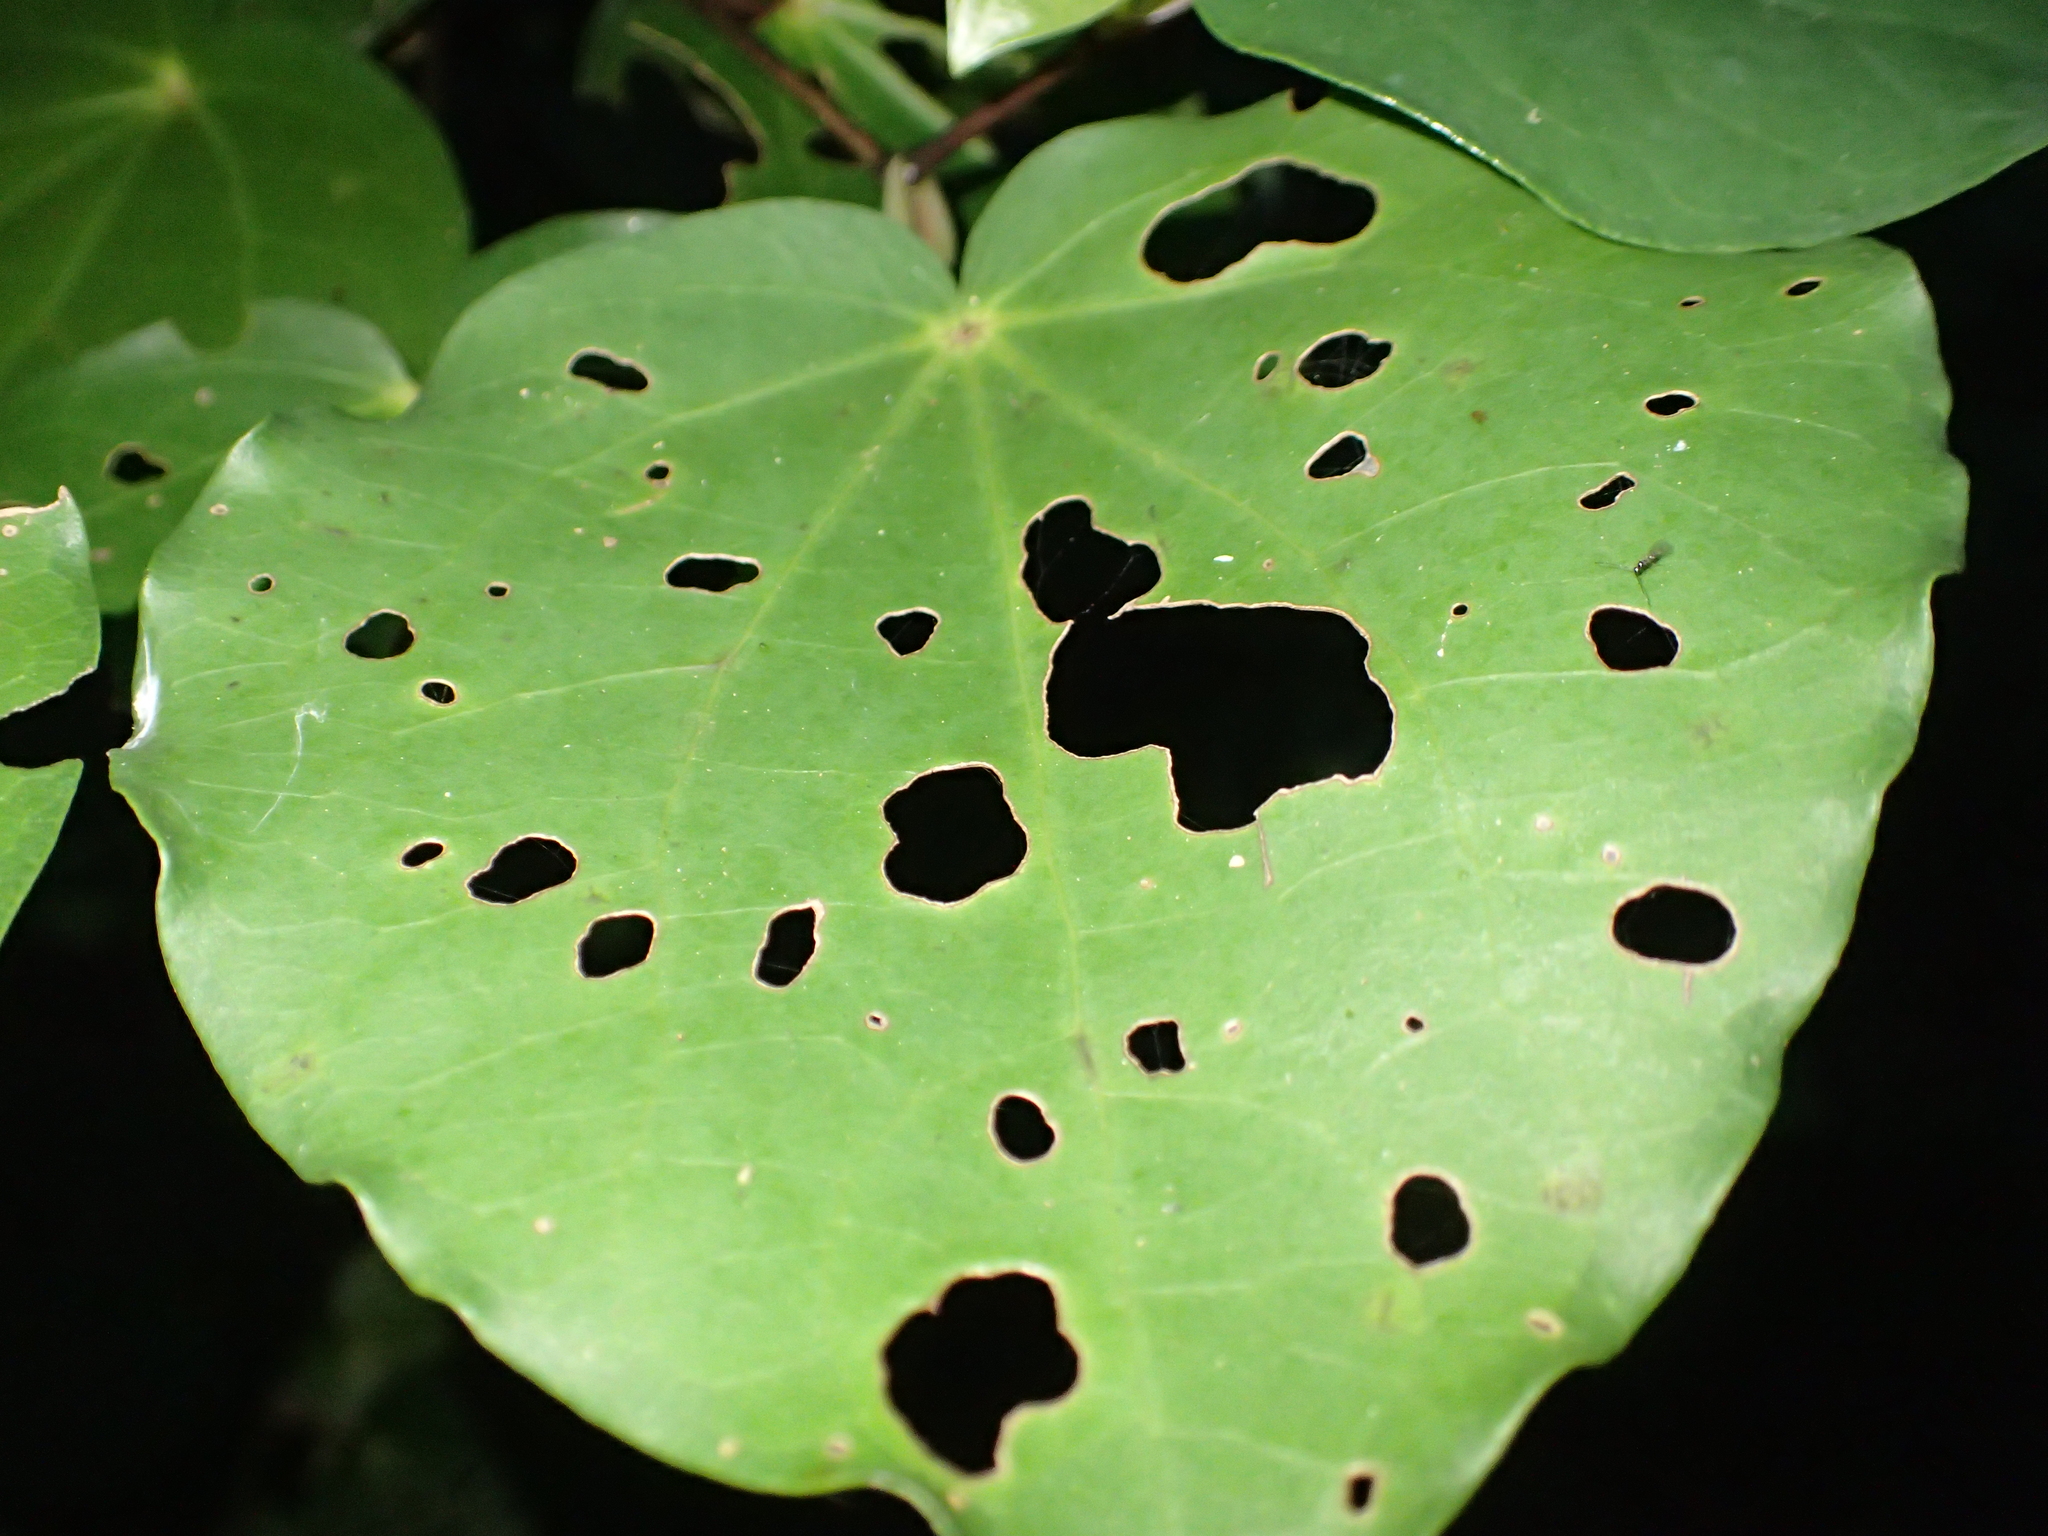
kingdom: Animalia
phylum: Arthropoda
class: Insecta
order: Lepidoptera
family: Geometridae
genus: Cleora
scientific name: Cleora scriptaria
